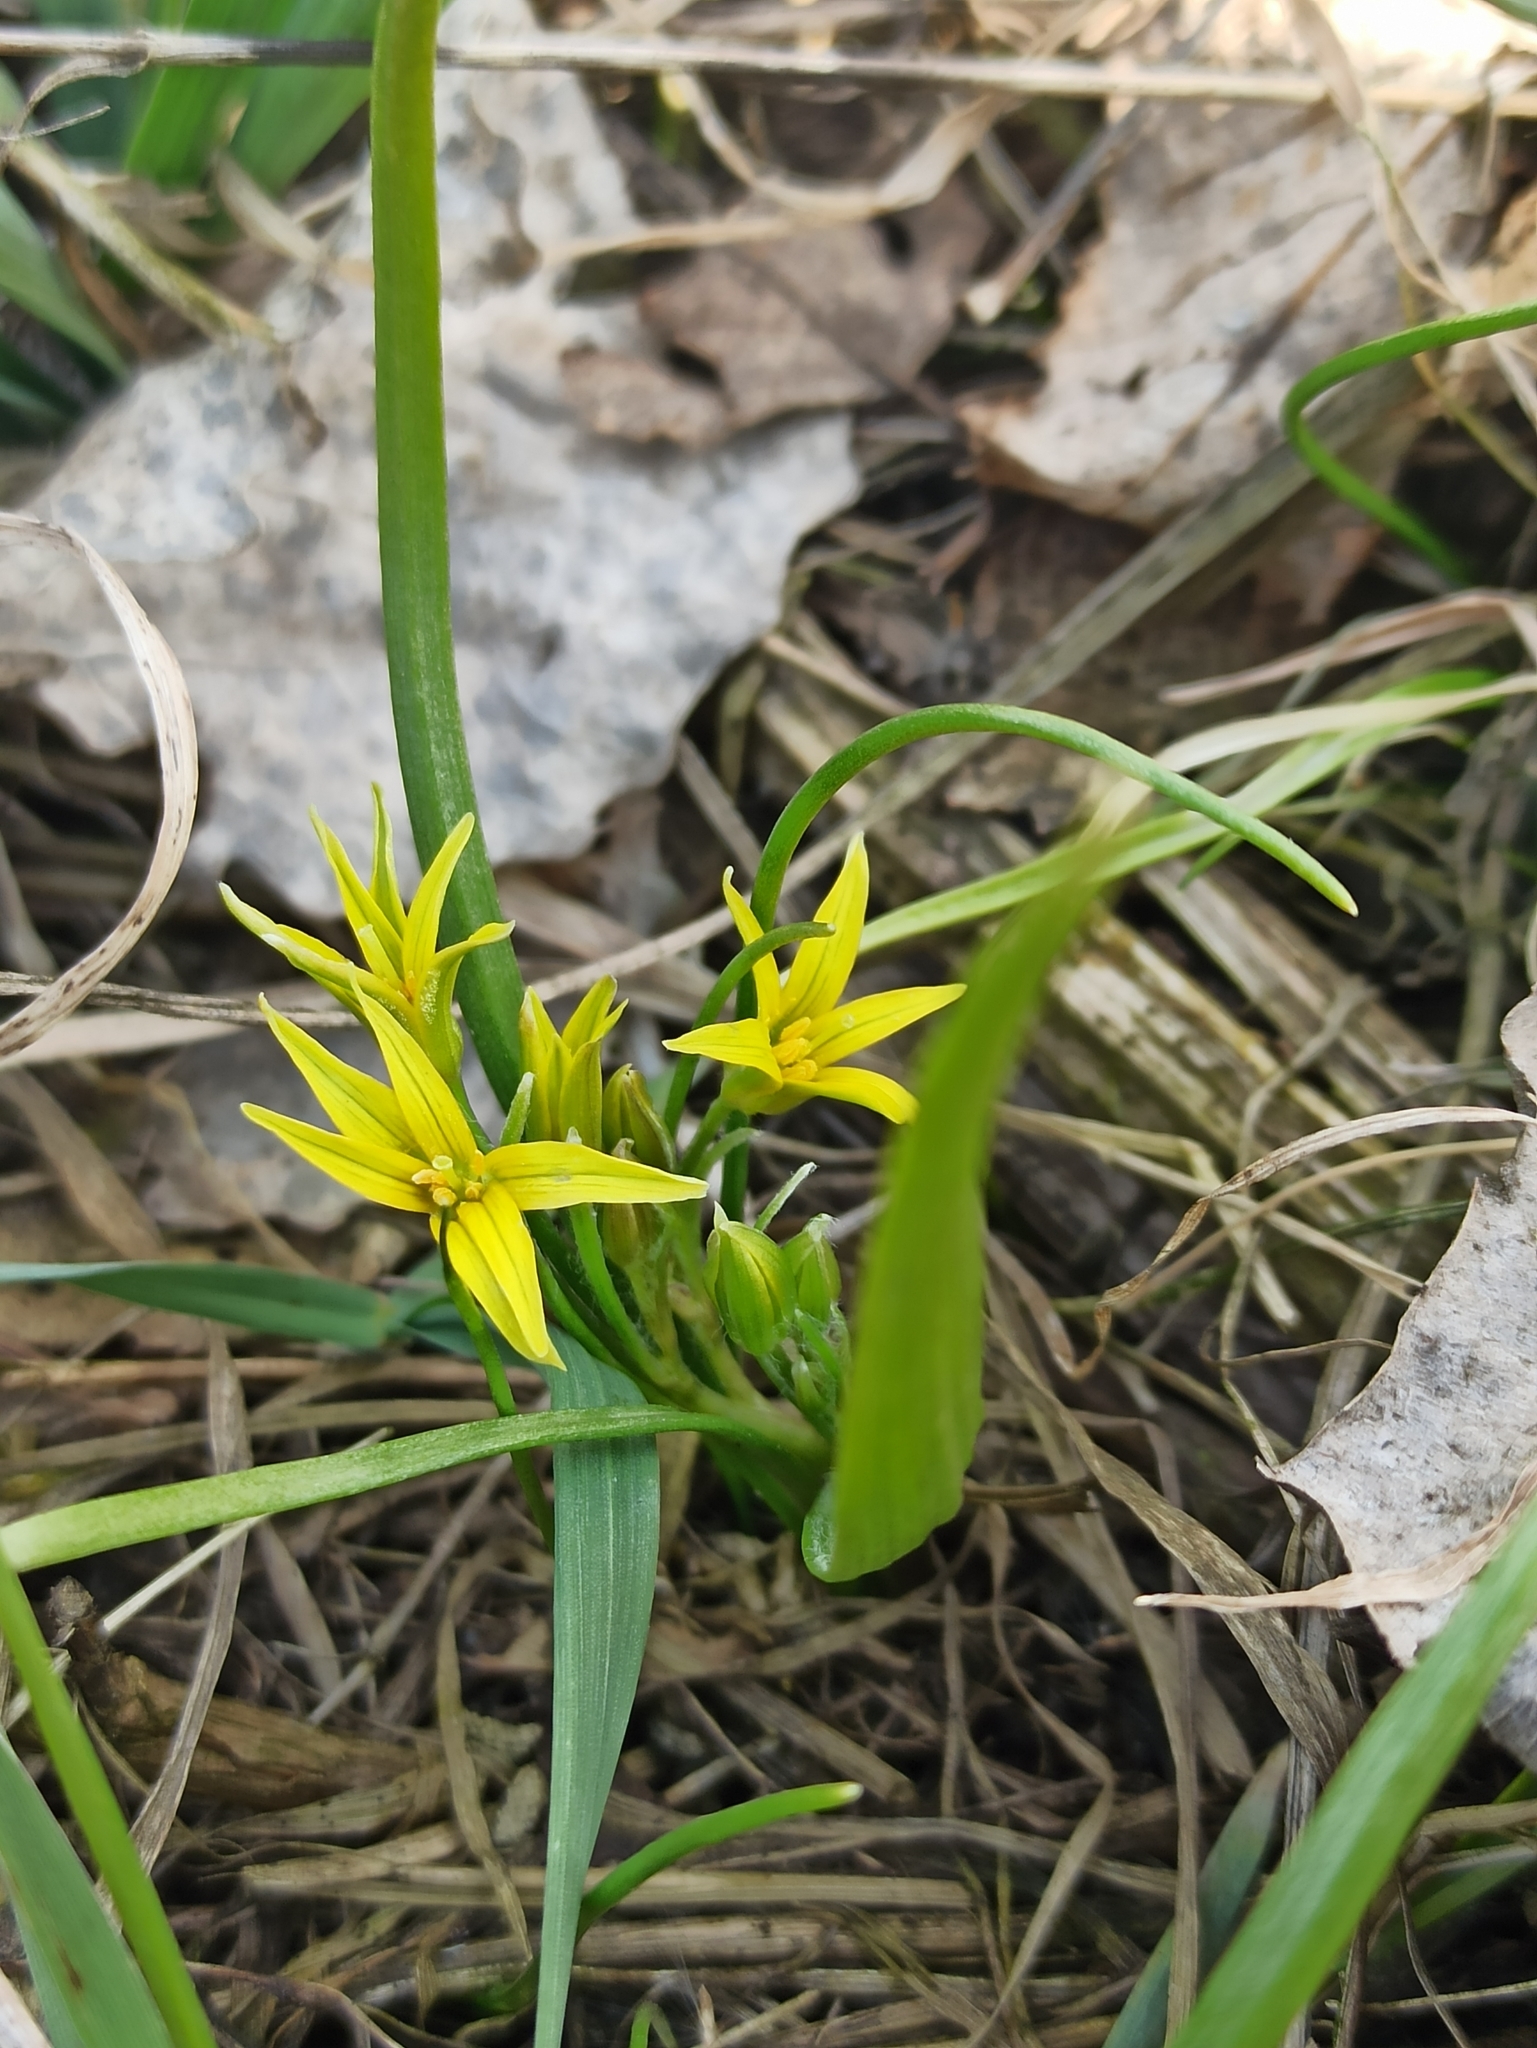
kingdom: Plantae
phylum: Tracheophyta
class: Liliopsida
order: Liliales
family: Liliaceae
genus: Gagea
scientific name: Gagea minima
